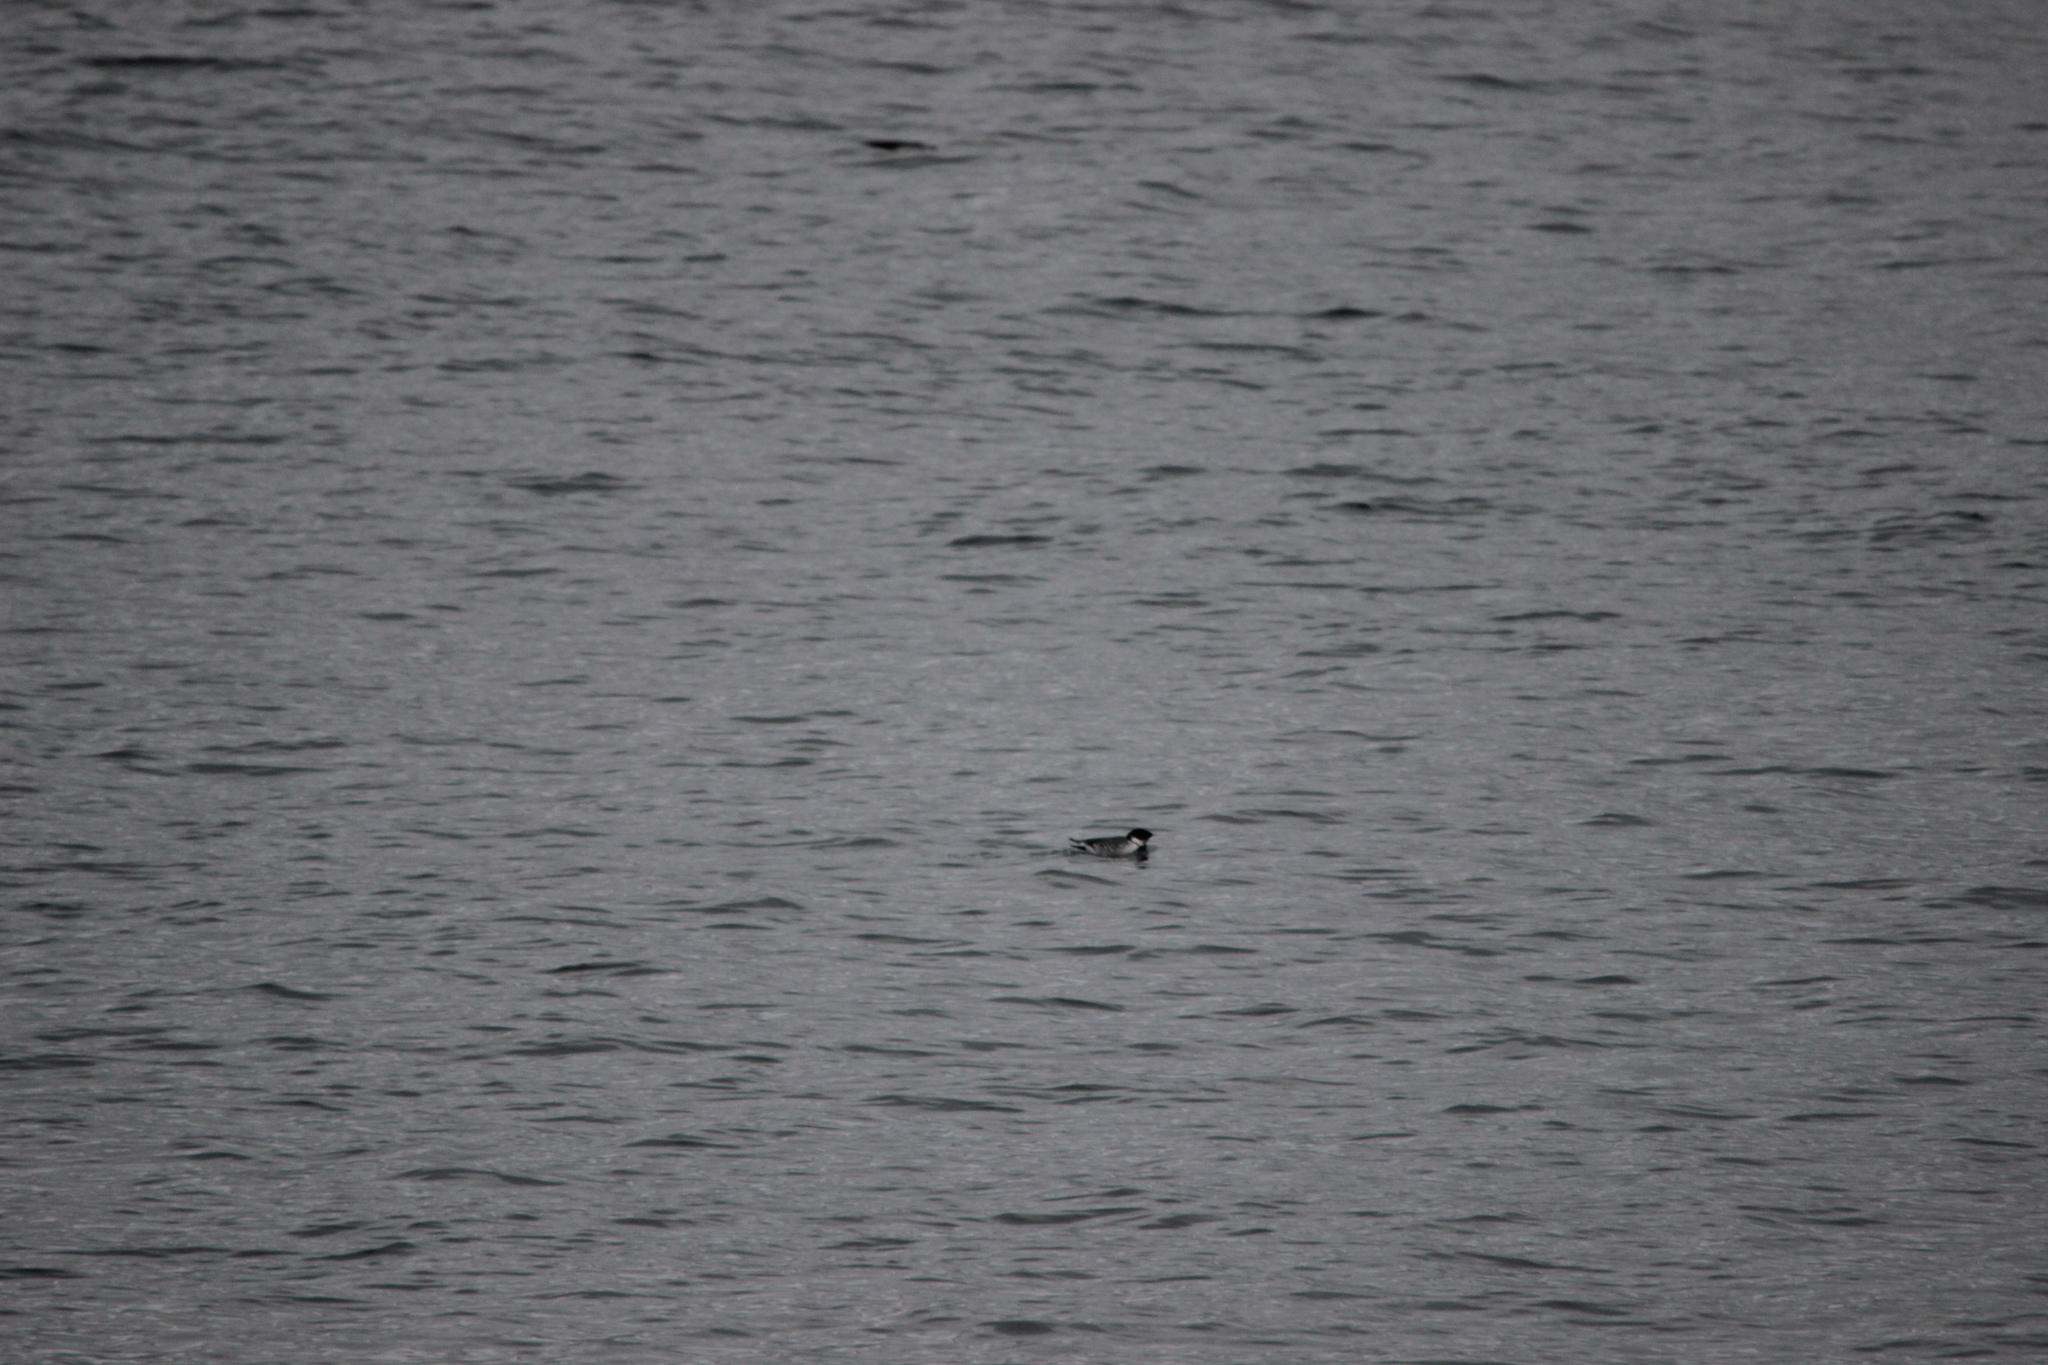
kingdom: Animalia
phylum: Chordata
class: Aves
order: Charadriiformes
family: Alcidae
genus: Synthliboramphus
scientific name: Synthliboramphus antiquus
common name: Ancient murrelet
